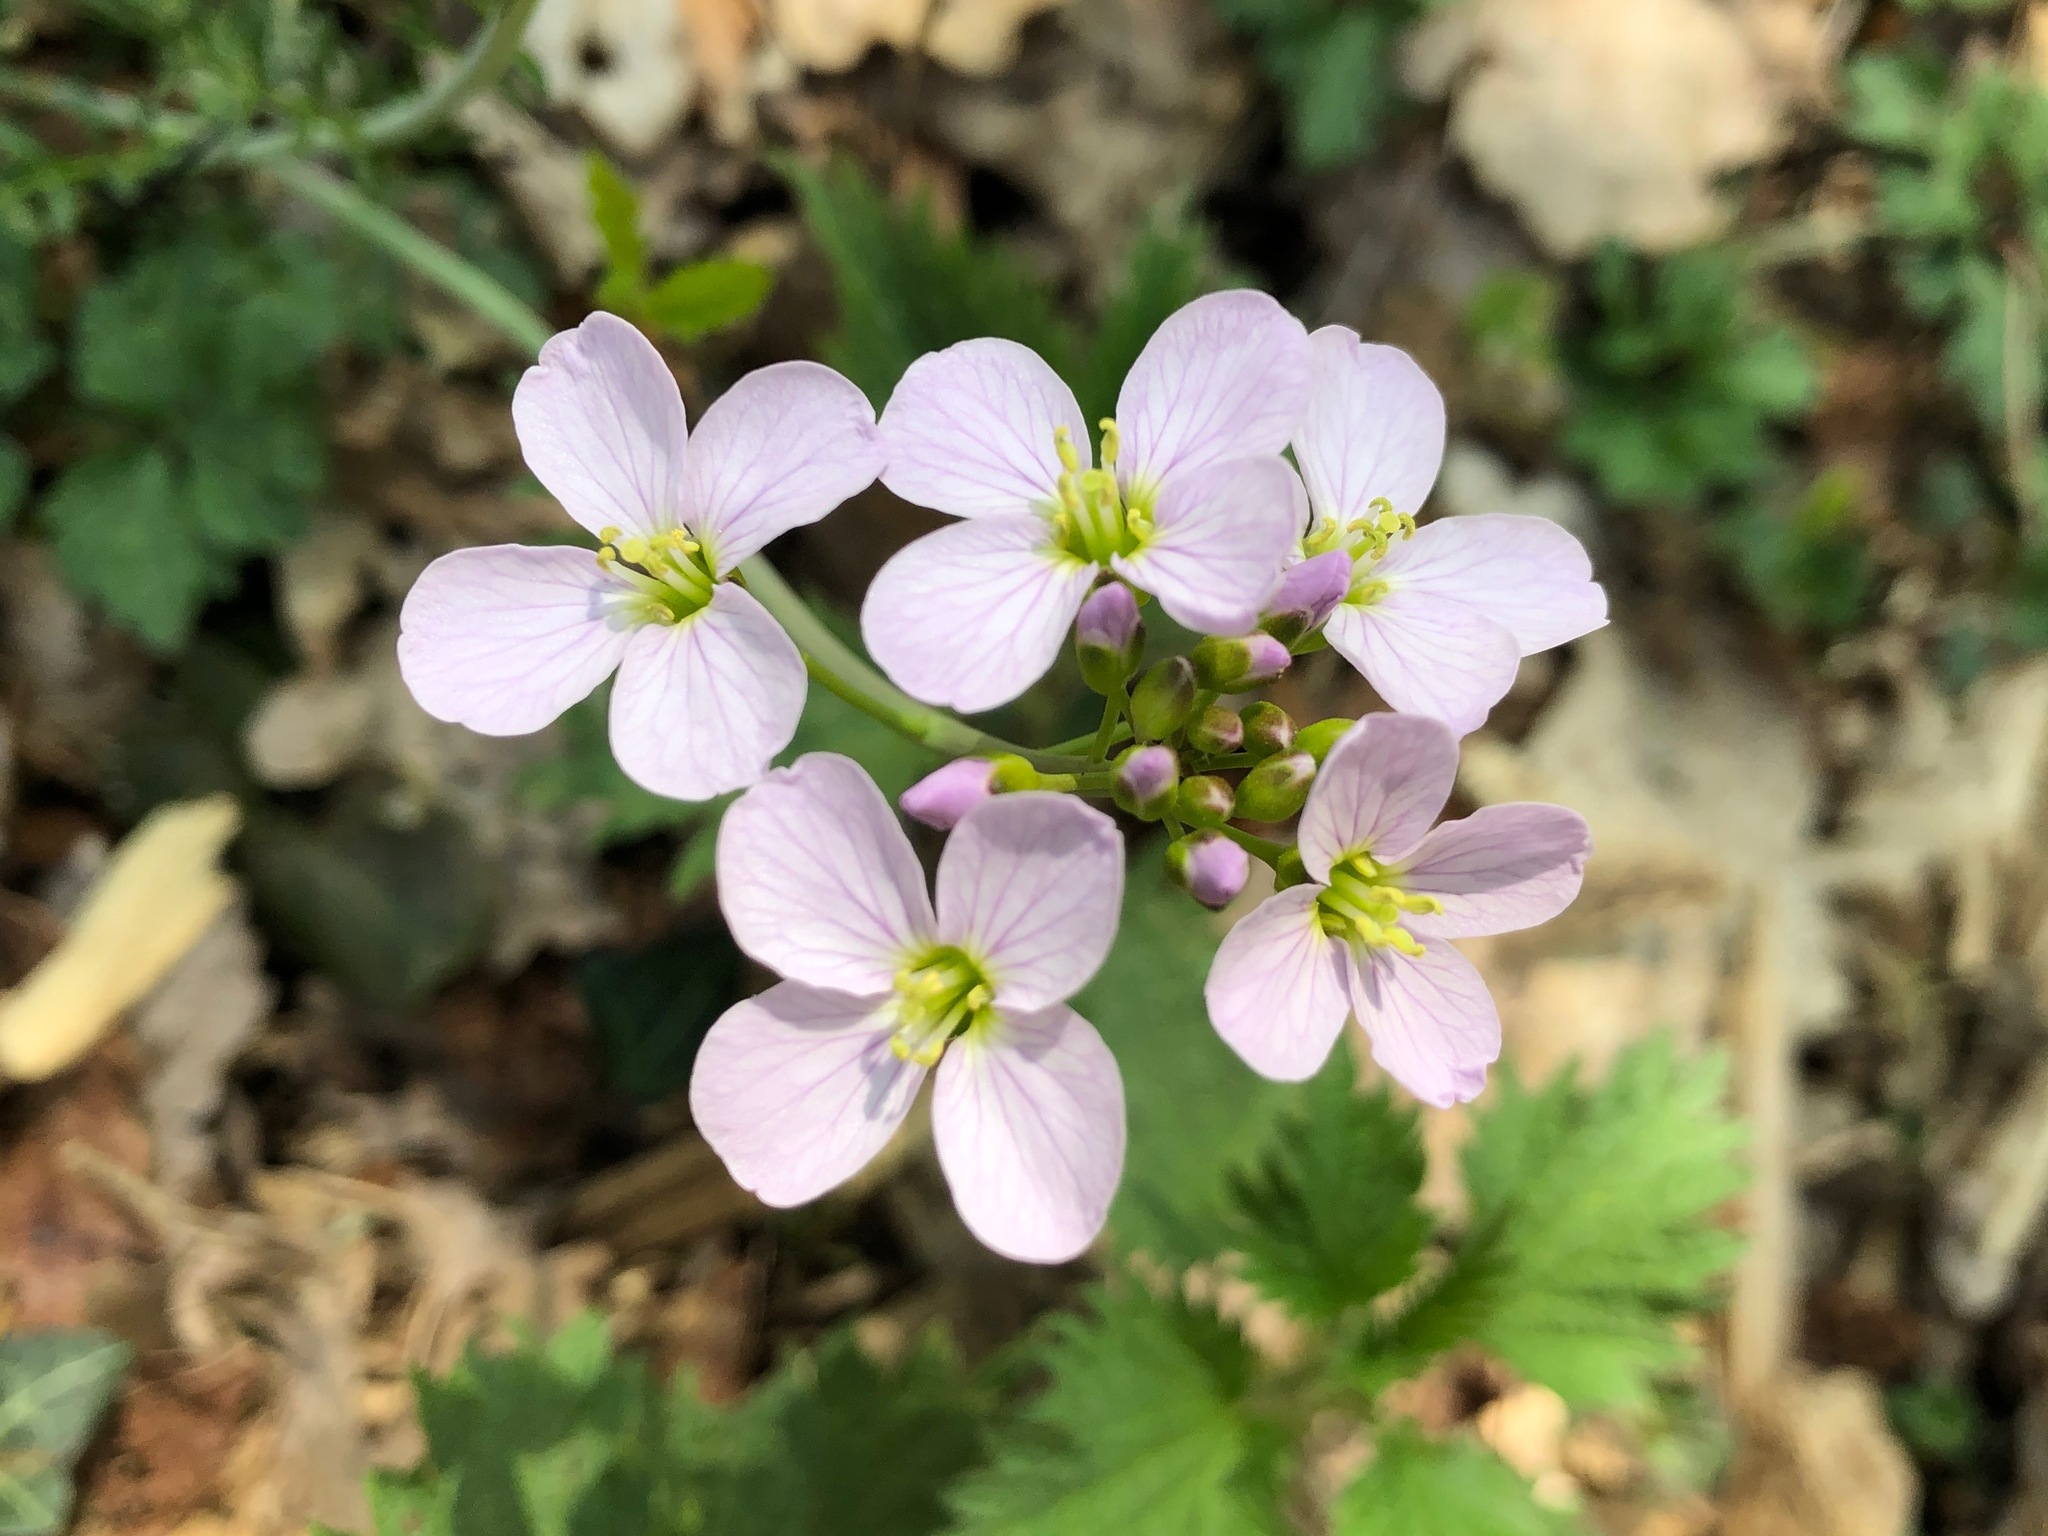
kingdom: Plantae
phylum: Tracheophyta
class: Magnoliopsida
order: Brassicales
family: Brassicaceae
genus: Cardamine
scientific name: Cardamine pratensis
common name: Cuckoo flower
